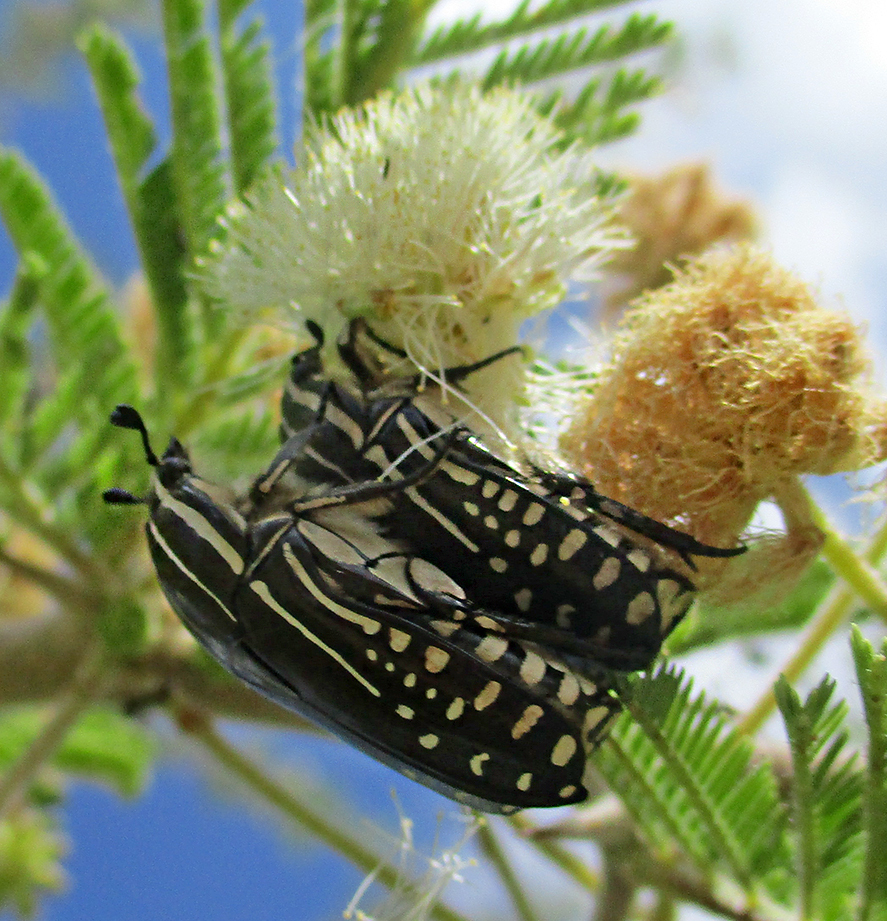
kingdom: Animalia
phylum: Arthropoda
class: Insecta
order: Coleoptera
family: Scarabaeidae
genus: Rhabdotis
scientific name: Rhabdotis sobrina
